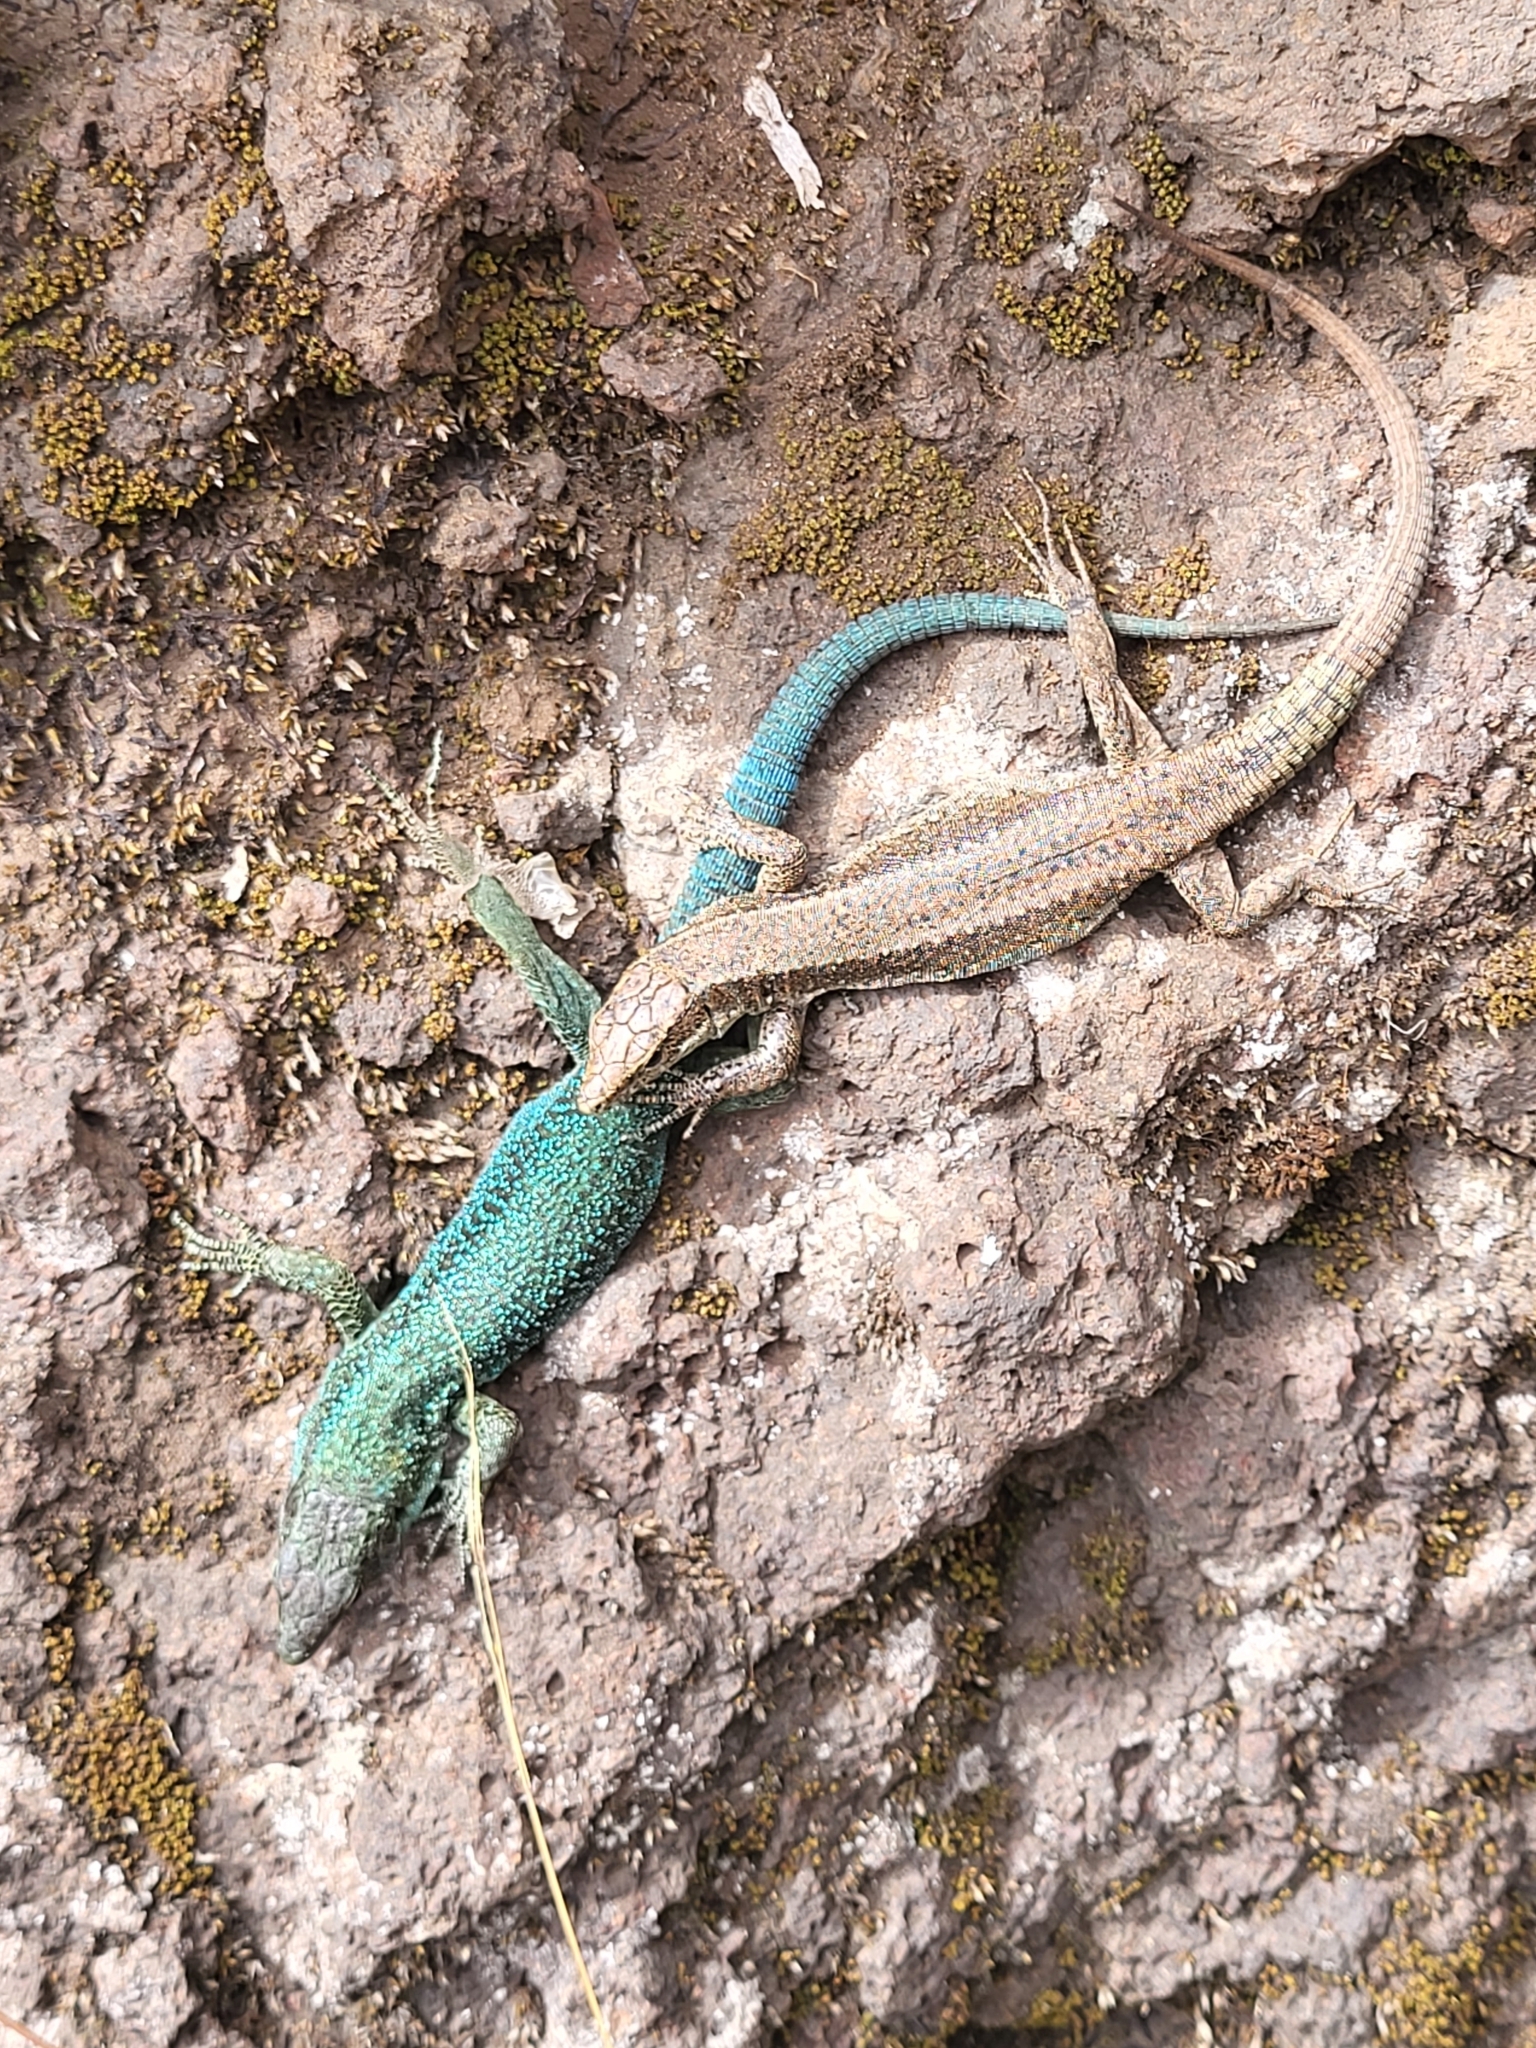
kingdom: Animalia
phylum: Chordata
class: Squamata
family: Lacertidae
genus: Teira
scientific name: Teira dugesii
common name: Madeira lizard
